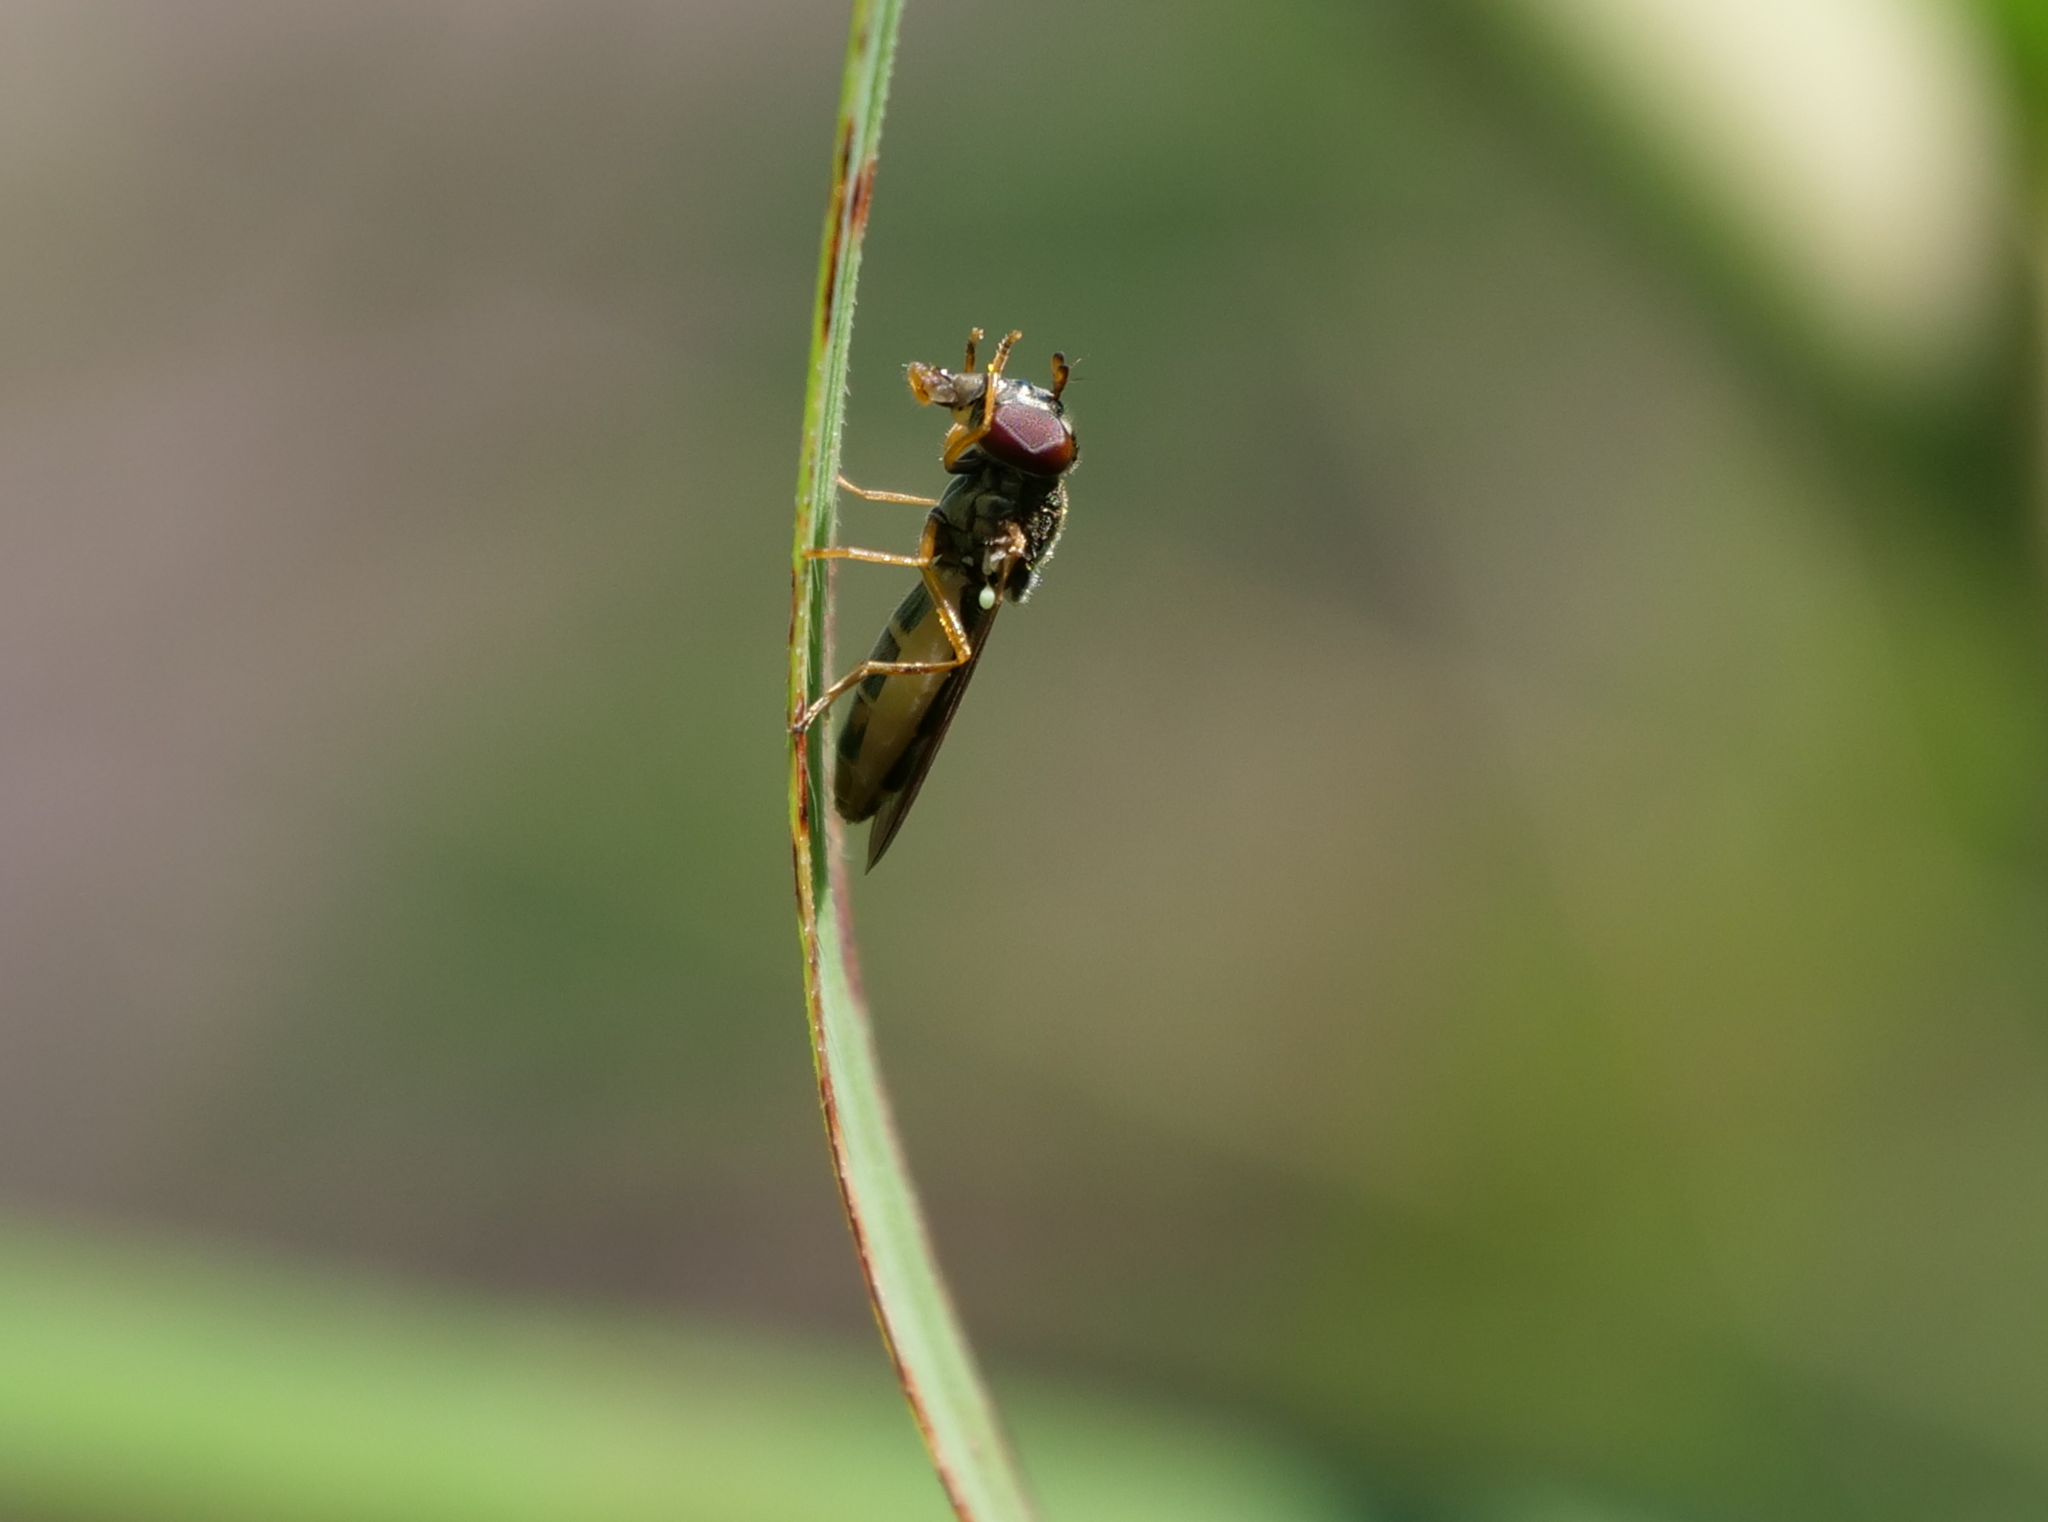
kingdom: Animalia
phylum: Arthropoda
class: Insecta
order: Diptera
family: Syrphidae
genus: Melanostoma
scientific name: Melanostoma mellina
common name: Hover fly
